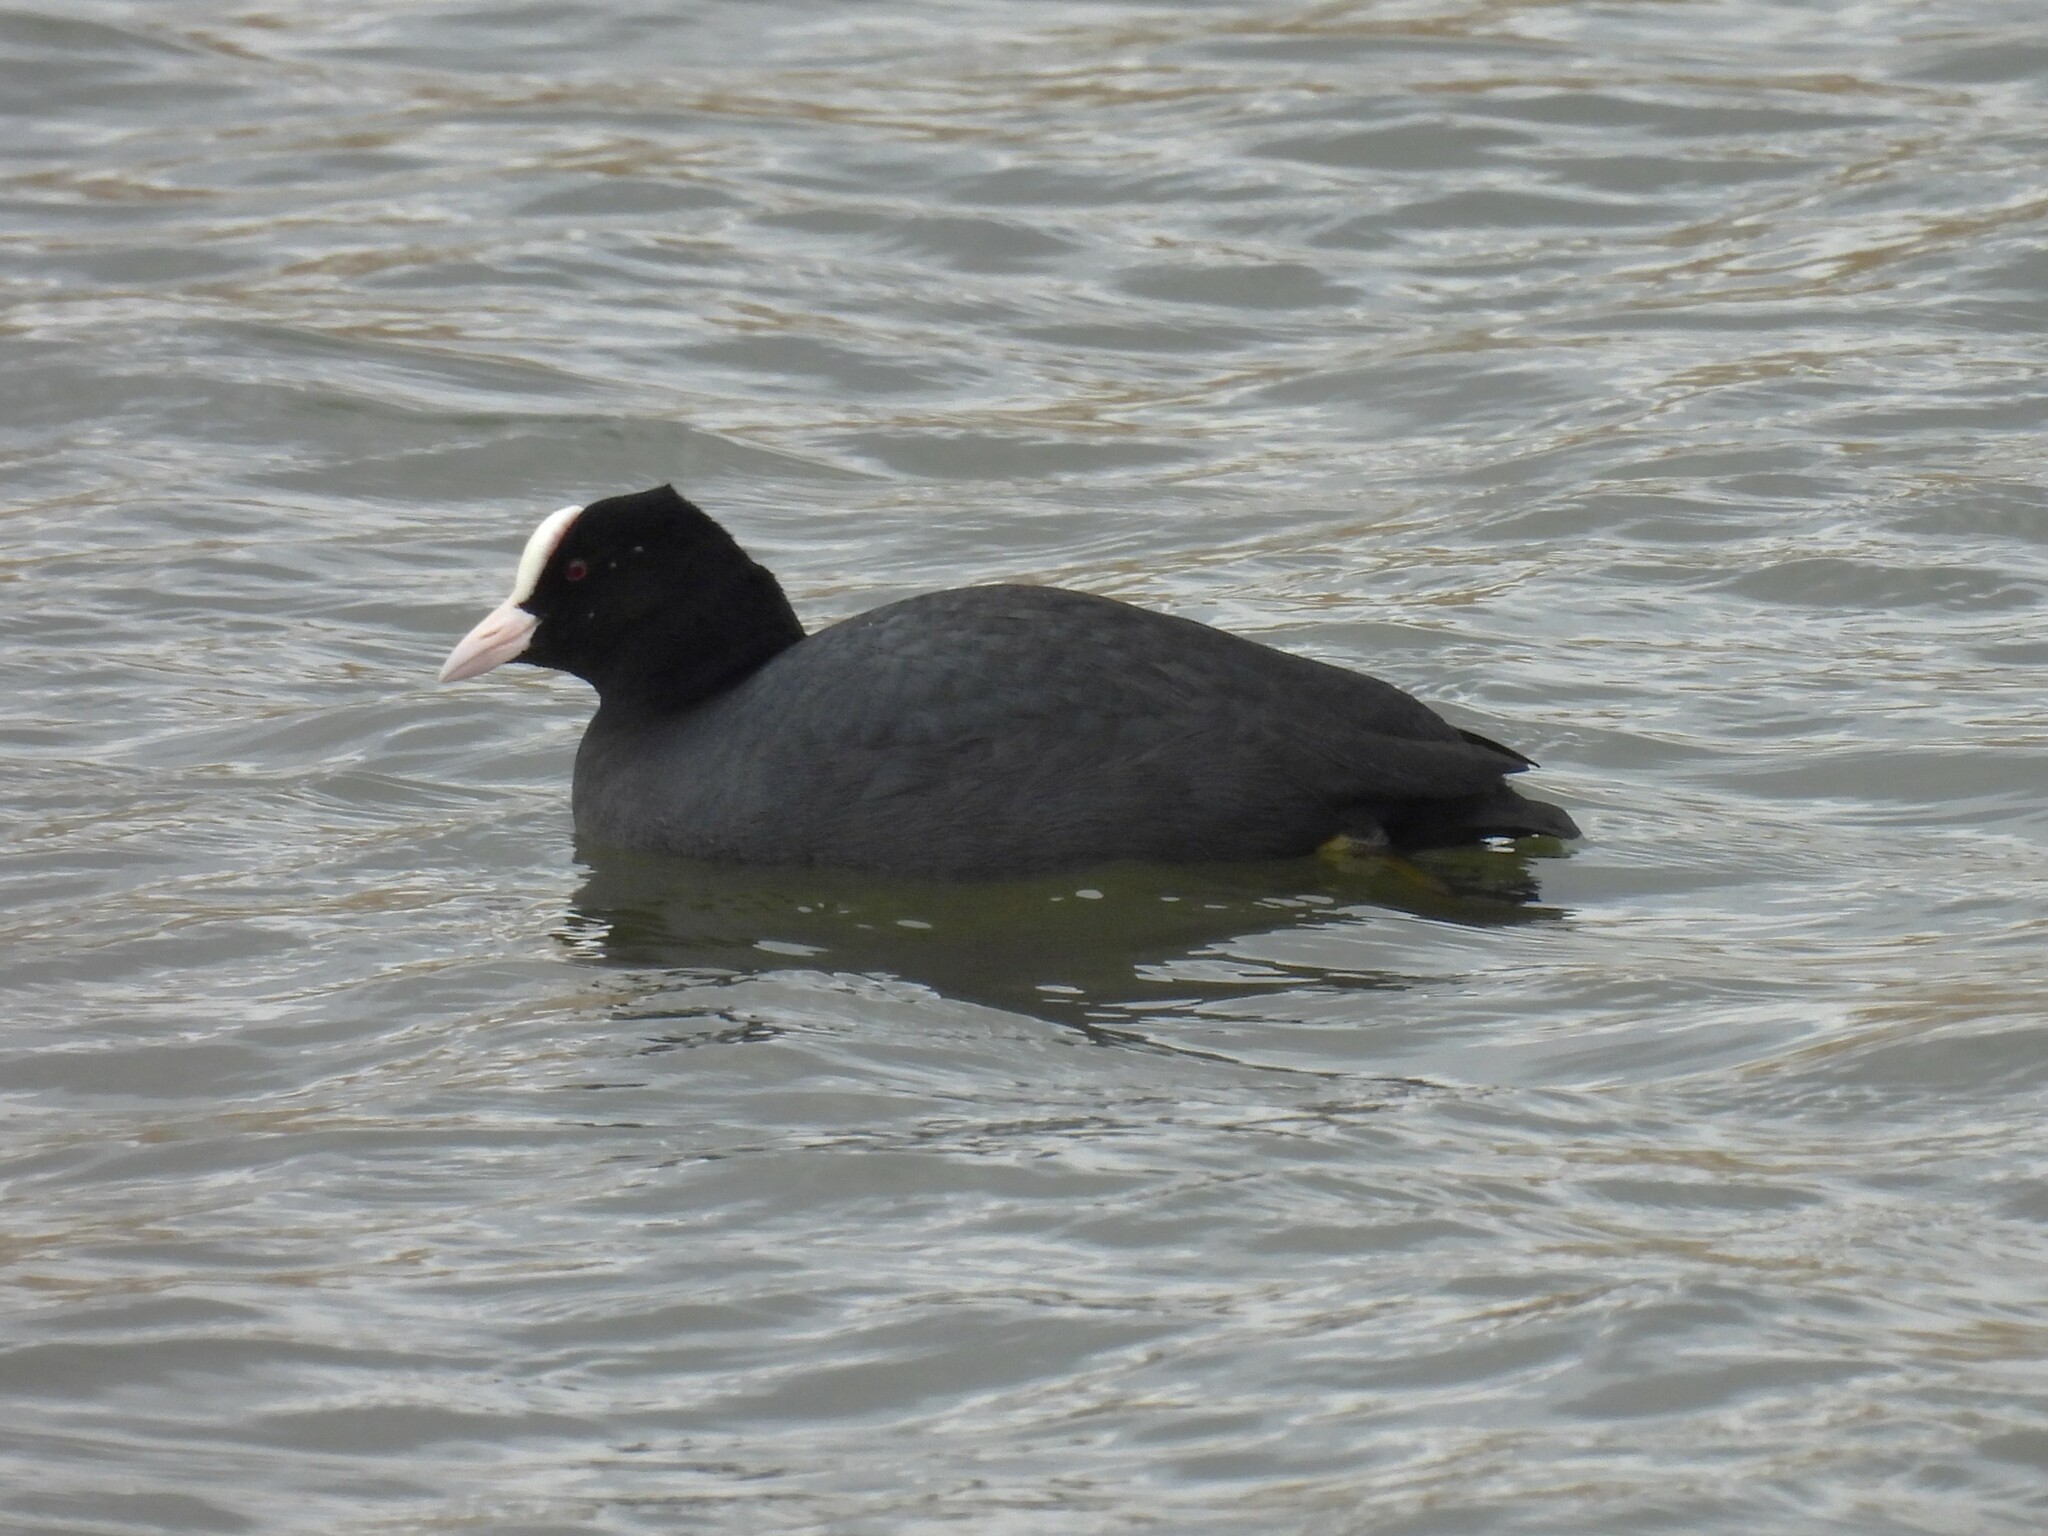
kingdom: Animalia
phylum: Chordata
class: Aves
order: Gruiformes
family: Rallidae
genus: Fulica
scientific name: Fulica atra
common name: Eurasian coot
